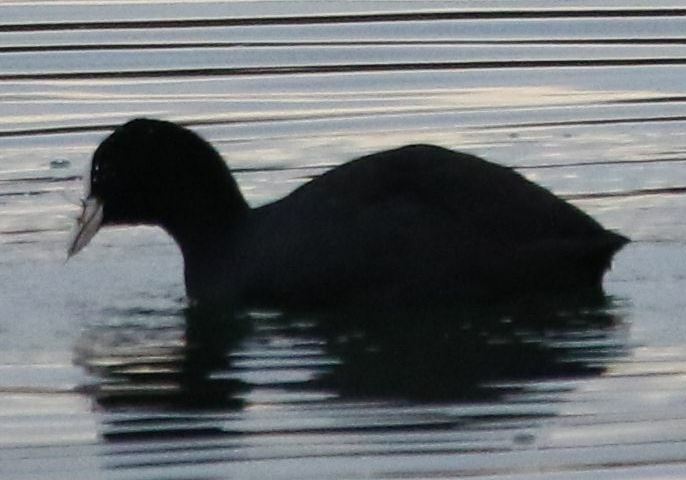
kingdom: Animalia
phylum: Chordata
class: Aves
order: Gruiformes
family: Rallidae
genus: Fulica
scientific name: Fulica atra
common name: Eurasian coot
